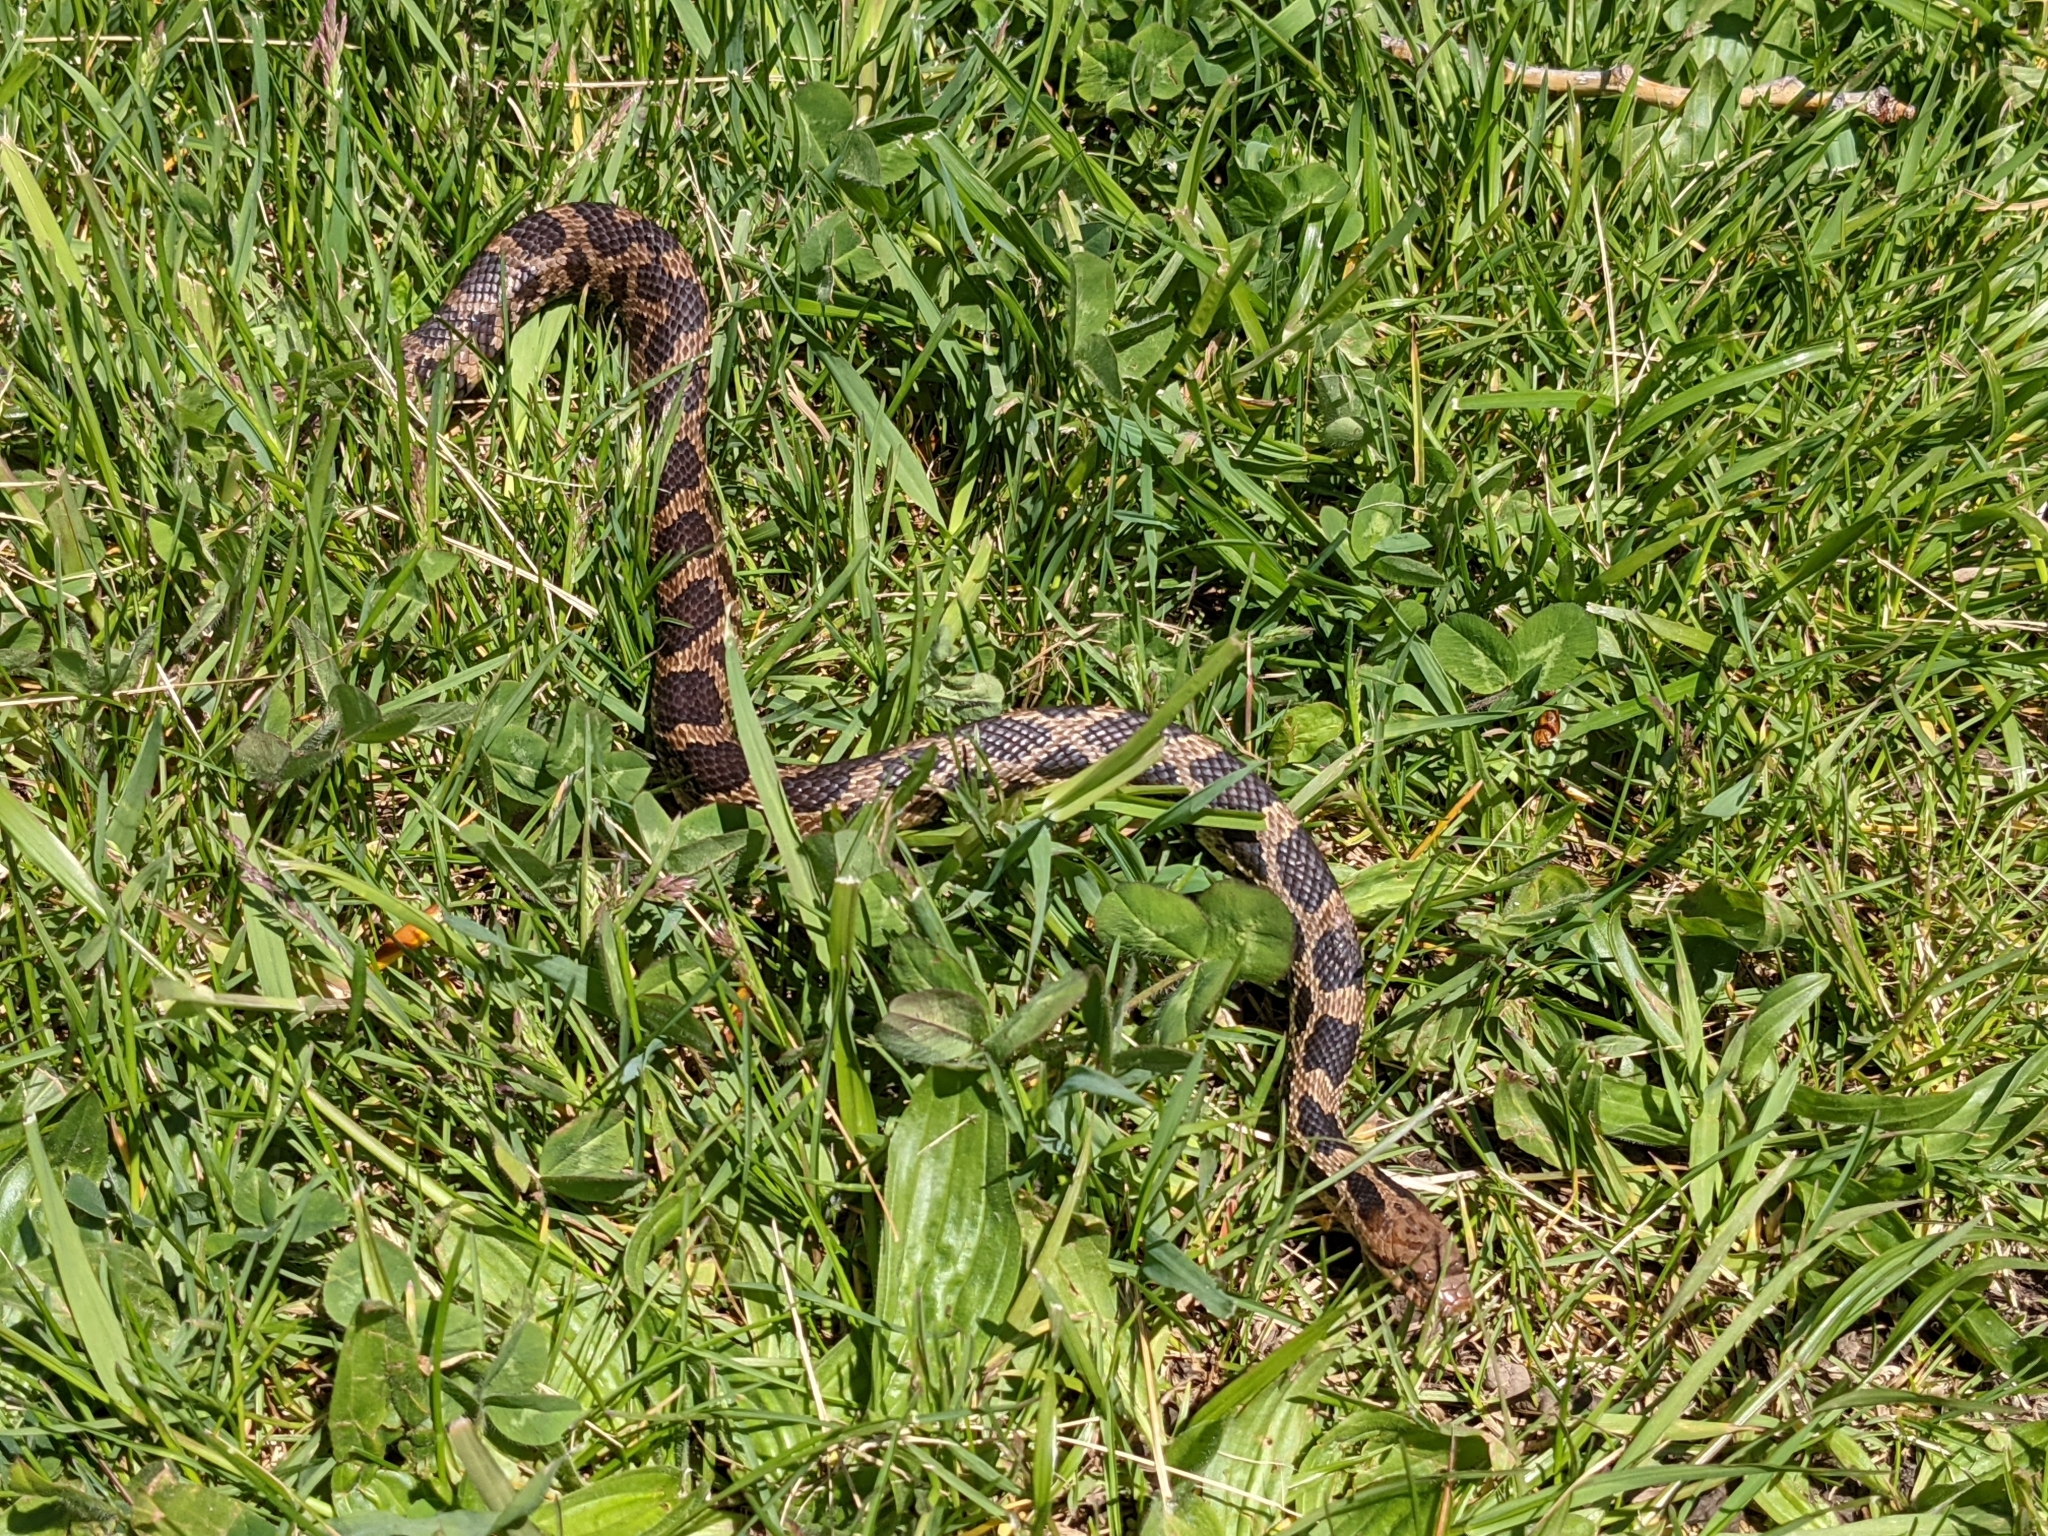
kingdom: Animalia
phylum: Chordata
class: Squamata
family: Colubridae
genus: Pantherophis
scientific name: Pantherophis vulpinus
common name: Eastern fox snake
